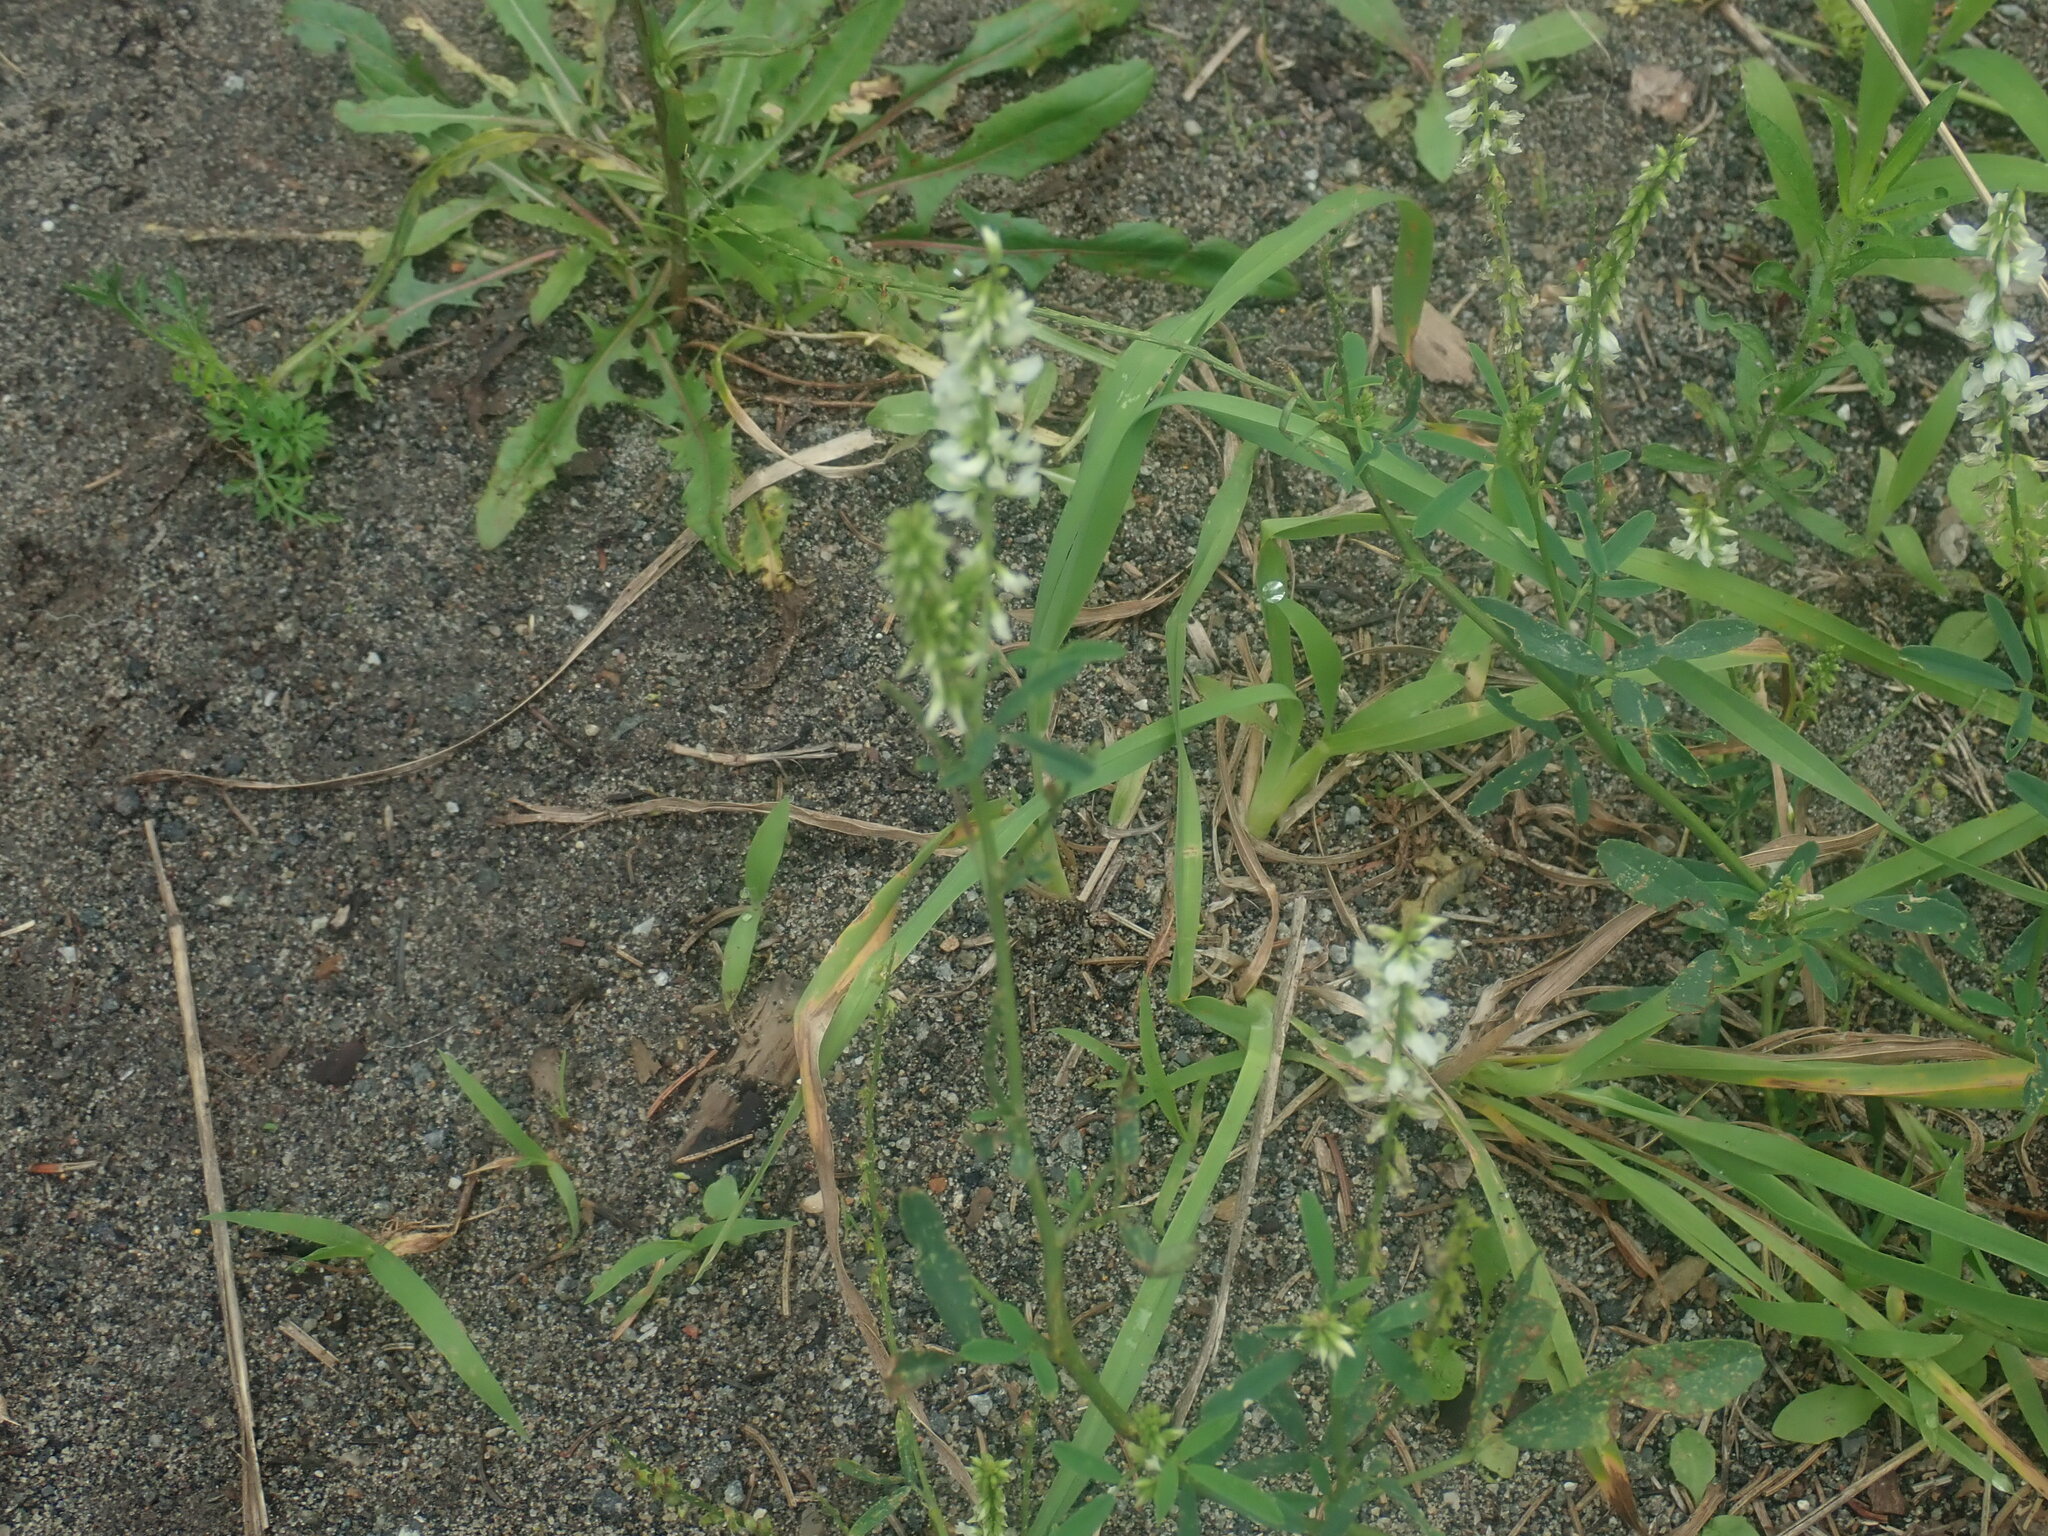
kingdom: Plantae
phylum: Tracheophyta
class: Magnoliopsida
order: Fabales
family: Fabaceae
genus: Melilotus
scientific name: Melilotus albus
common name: White melilot
